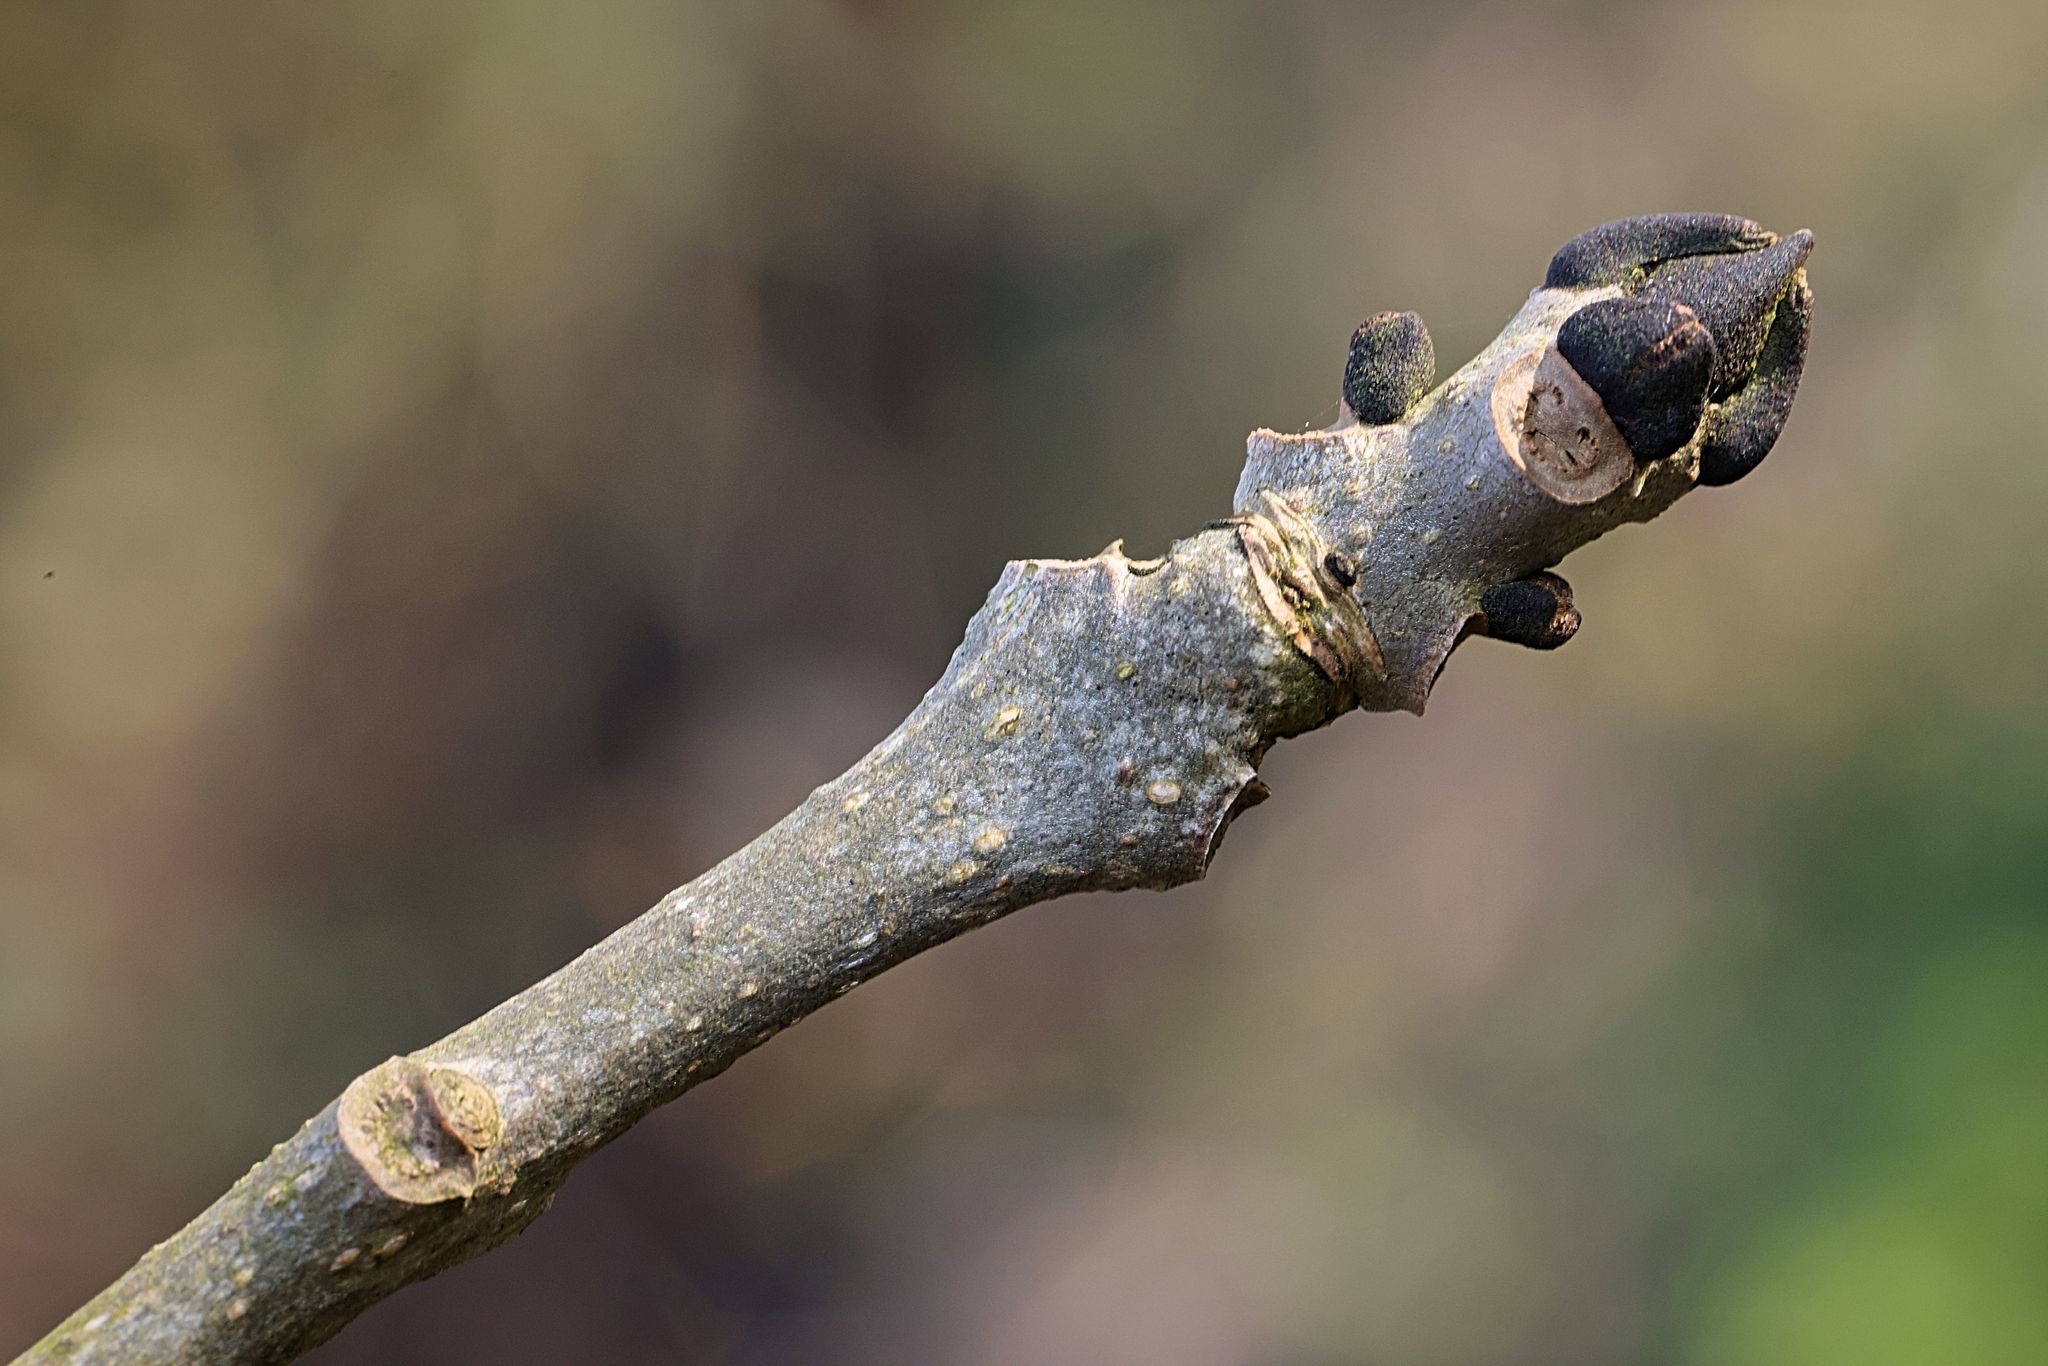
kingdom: Plantae
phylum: Tracheophyta
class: Magnoliopsida
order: Lamiales
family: Oleaceae
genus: Fraxinus
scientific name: Fraxinus excelsior
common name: European ash
